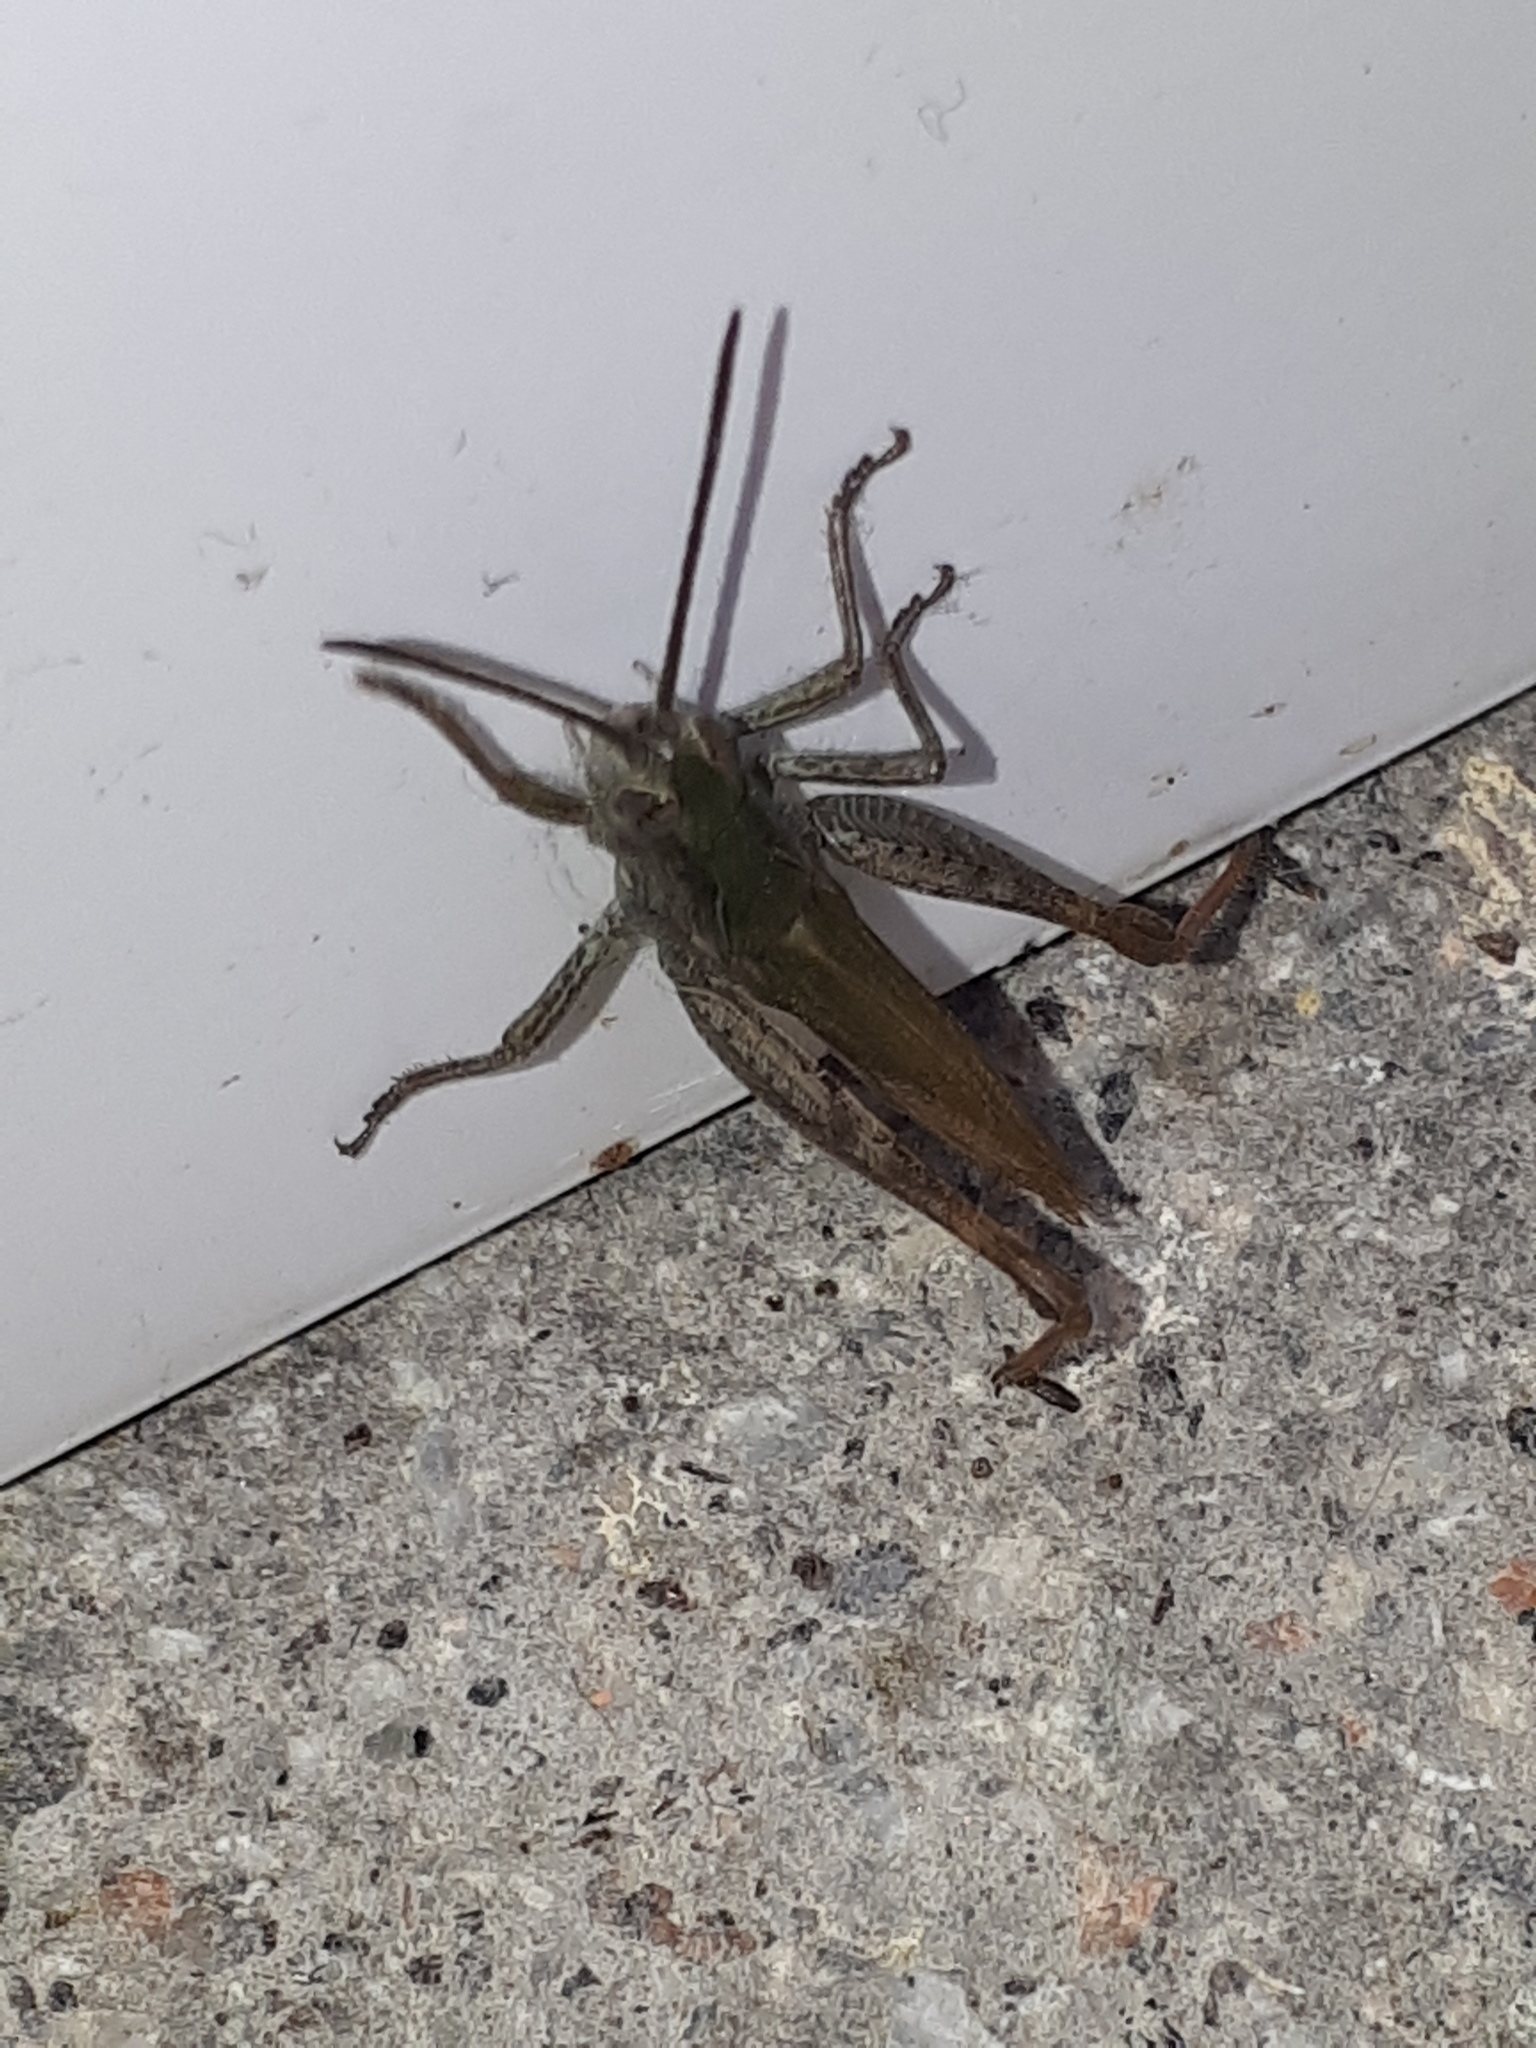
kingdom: Animalia
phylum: Arthropoda
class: Insecta
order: Orthoptera
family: Acrididae
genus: Chorthippus
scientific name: Chorthippus brunneus
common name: Field grasshopper
